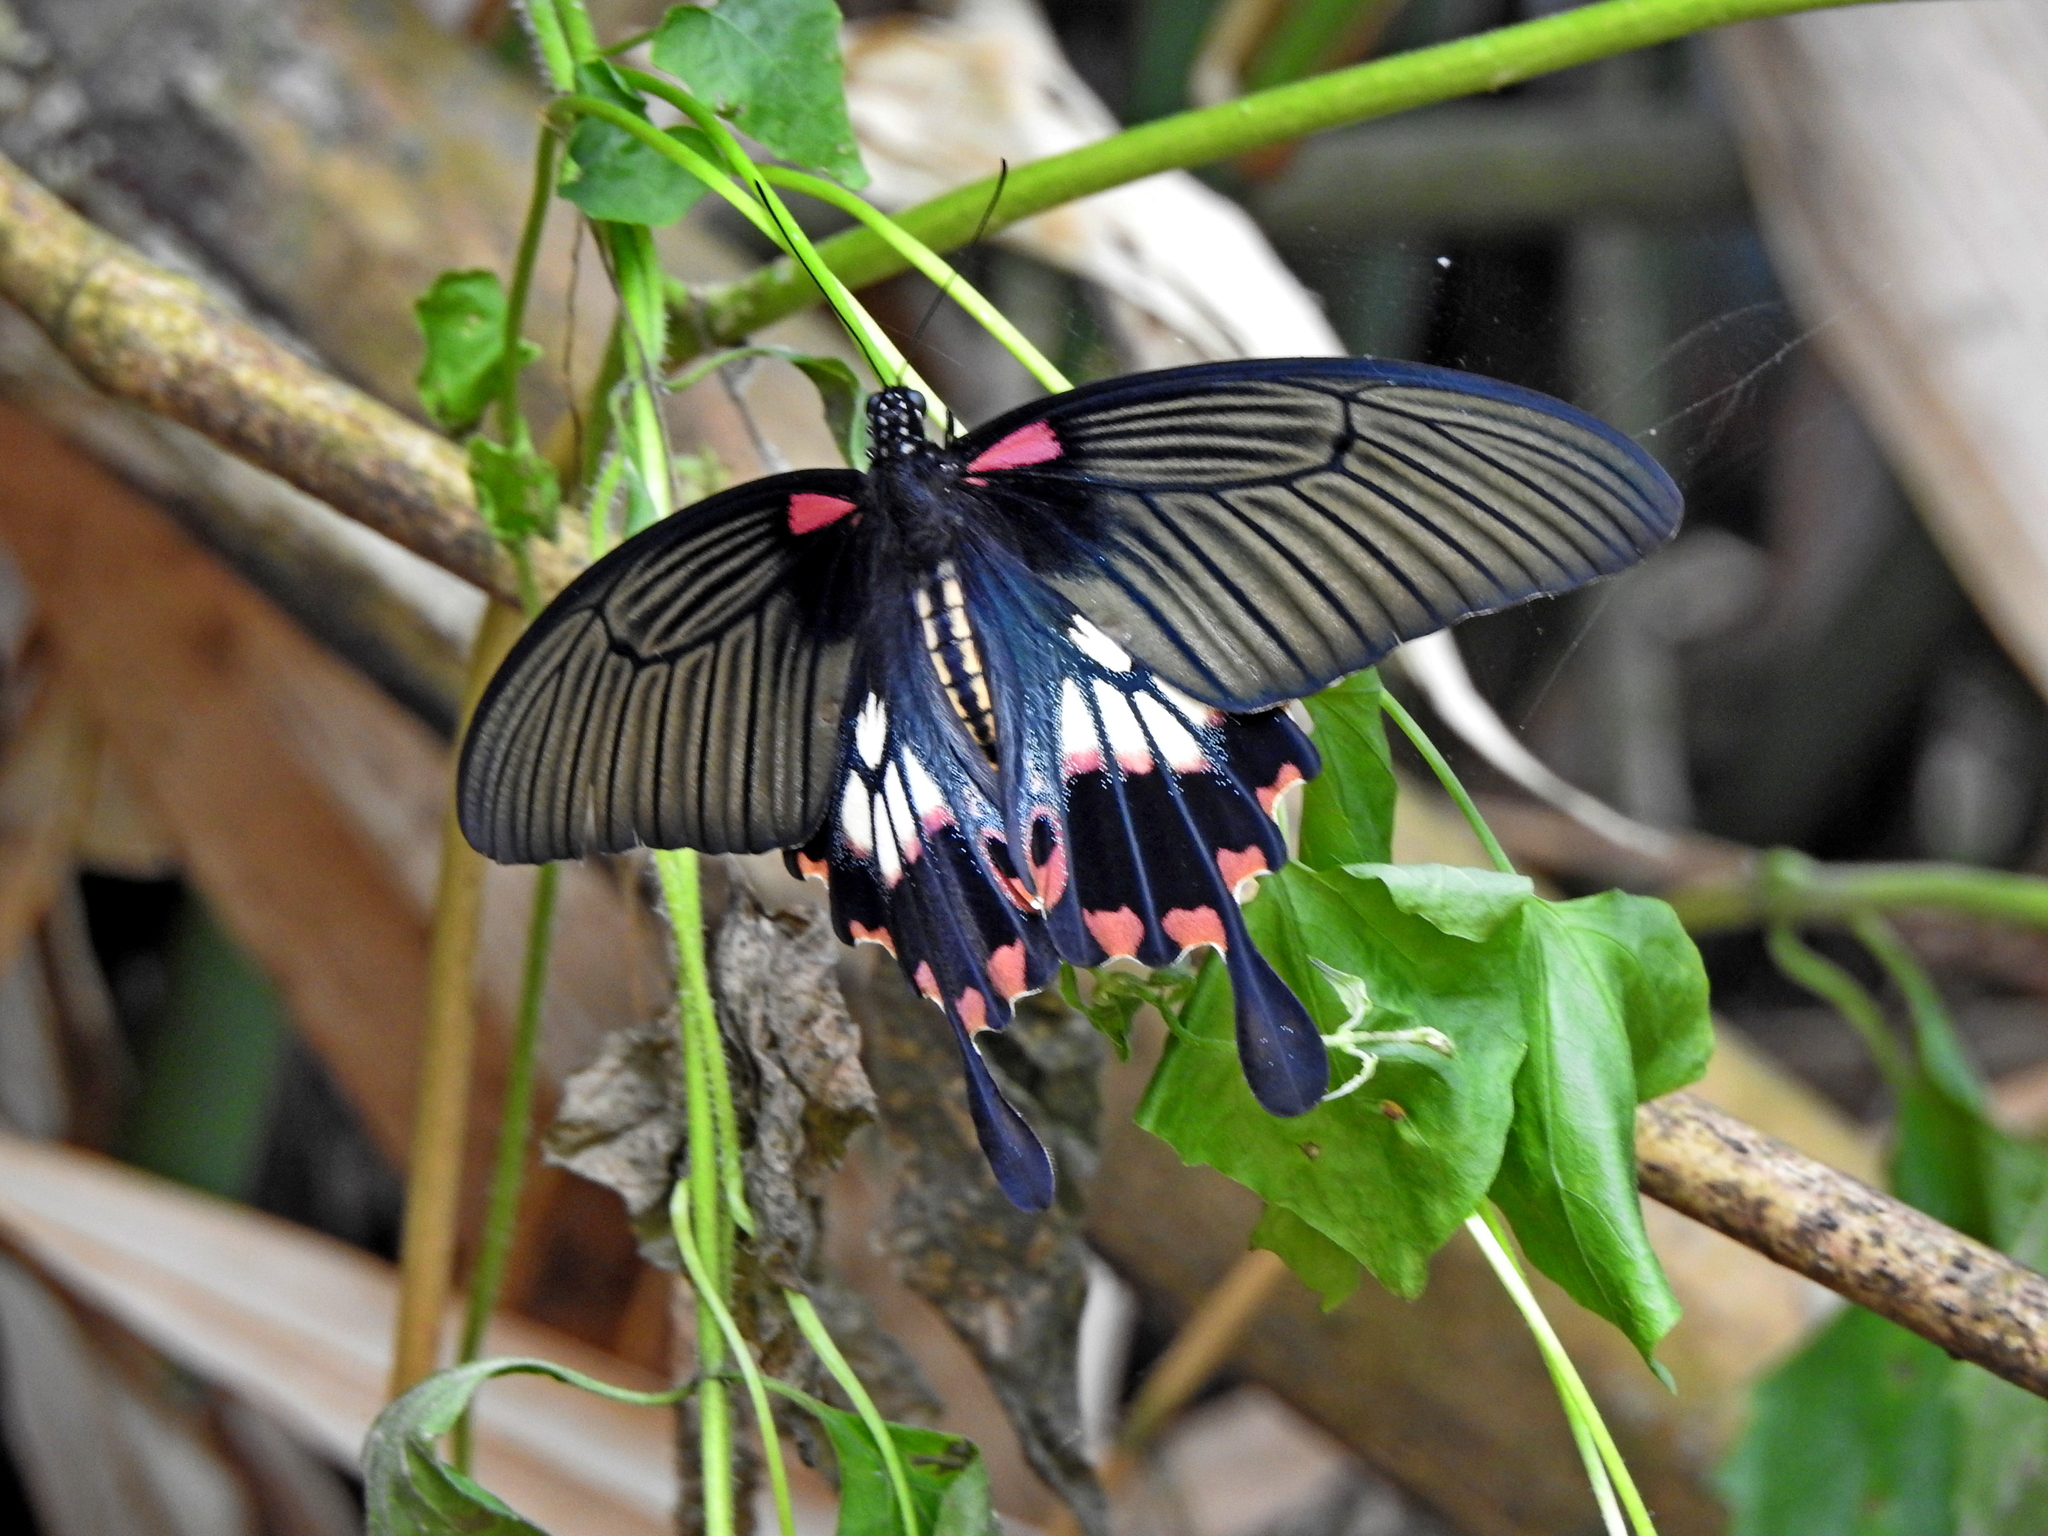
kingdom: Animalia
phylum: Arthropoda
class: Insecta
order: Lepidoptera
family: Papilionidae
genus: Papilio
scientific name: Papilio memnon
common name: Great mormon
